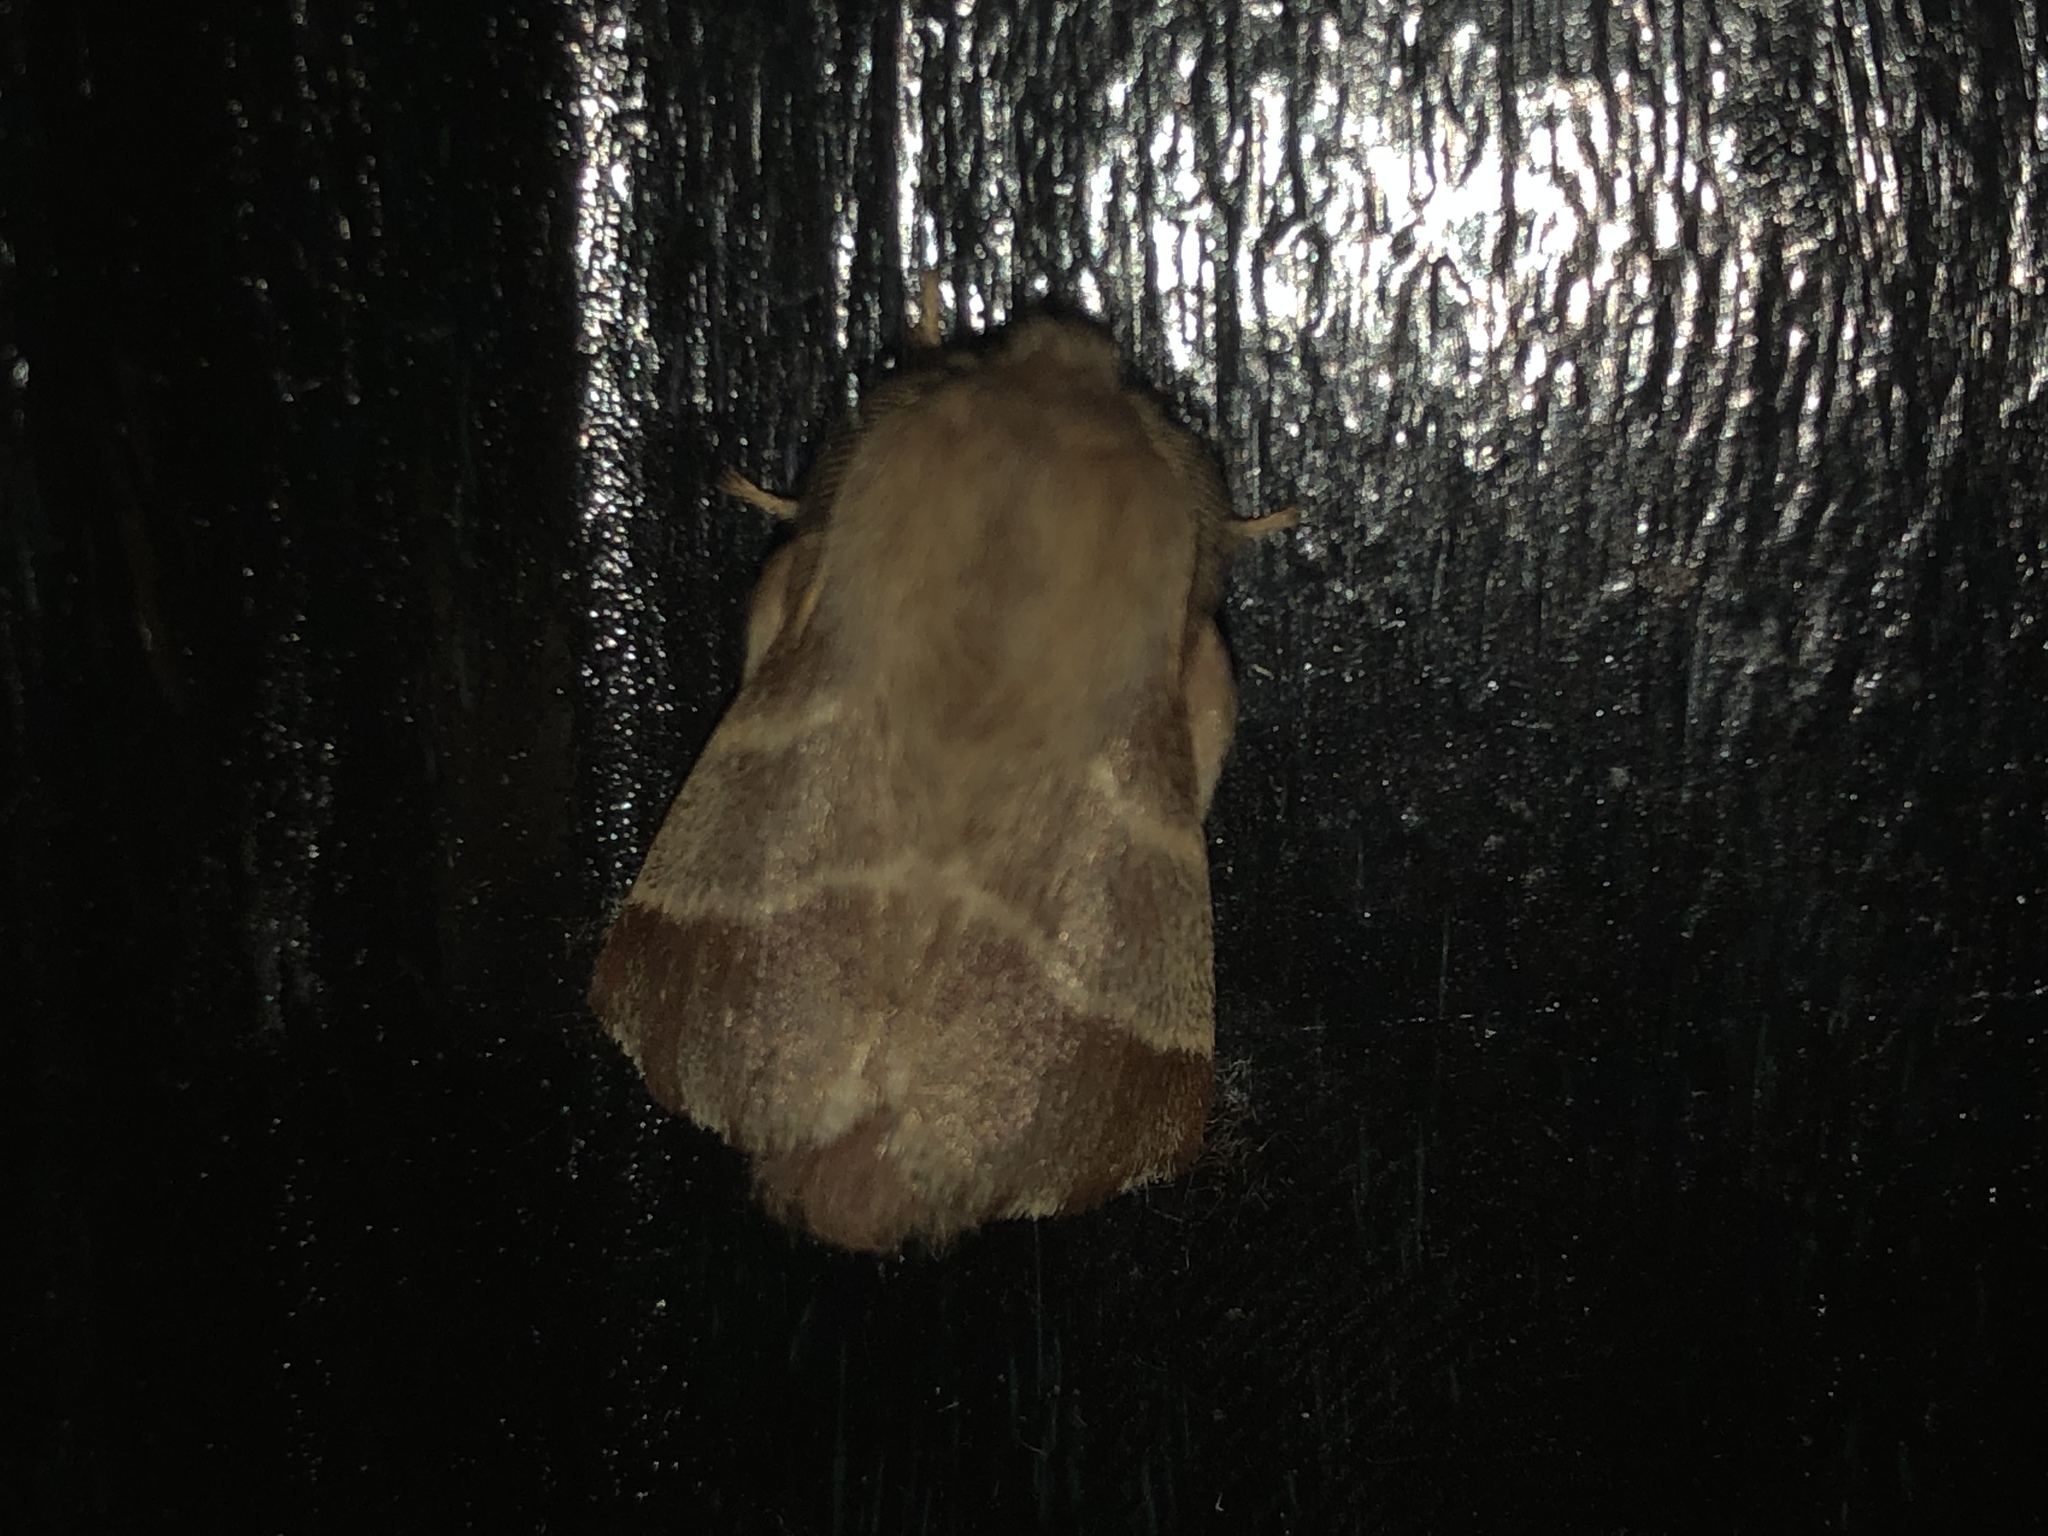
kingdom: Animalia
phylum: Arthropoda
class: Insecta
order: Lepidoptera
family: Lasiocampidae
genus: Malacosoma
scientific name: Malacosoma americana
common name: Eastern tent caterpillar moth
